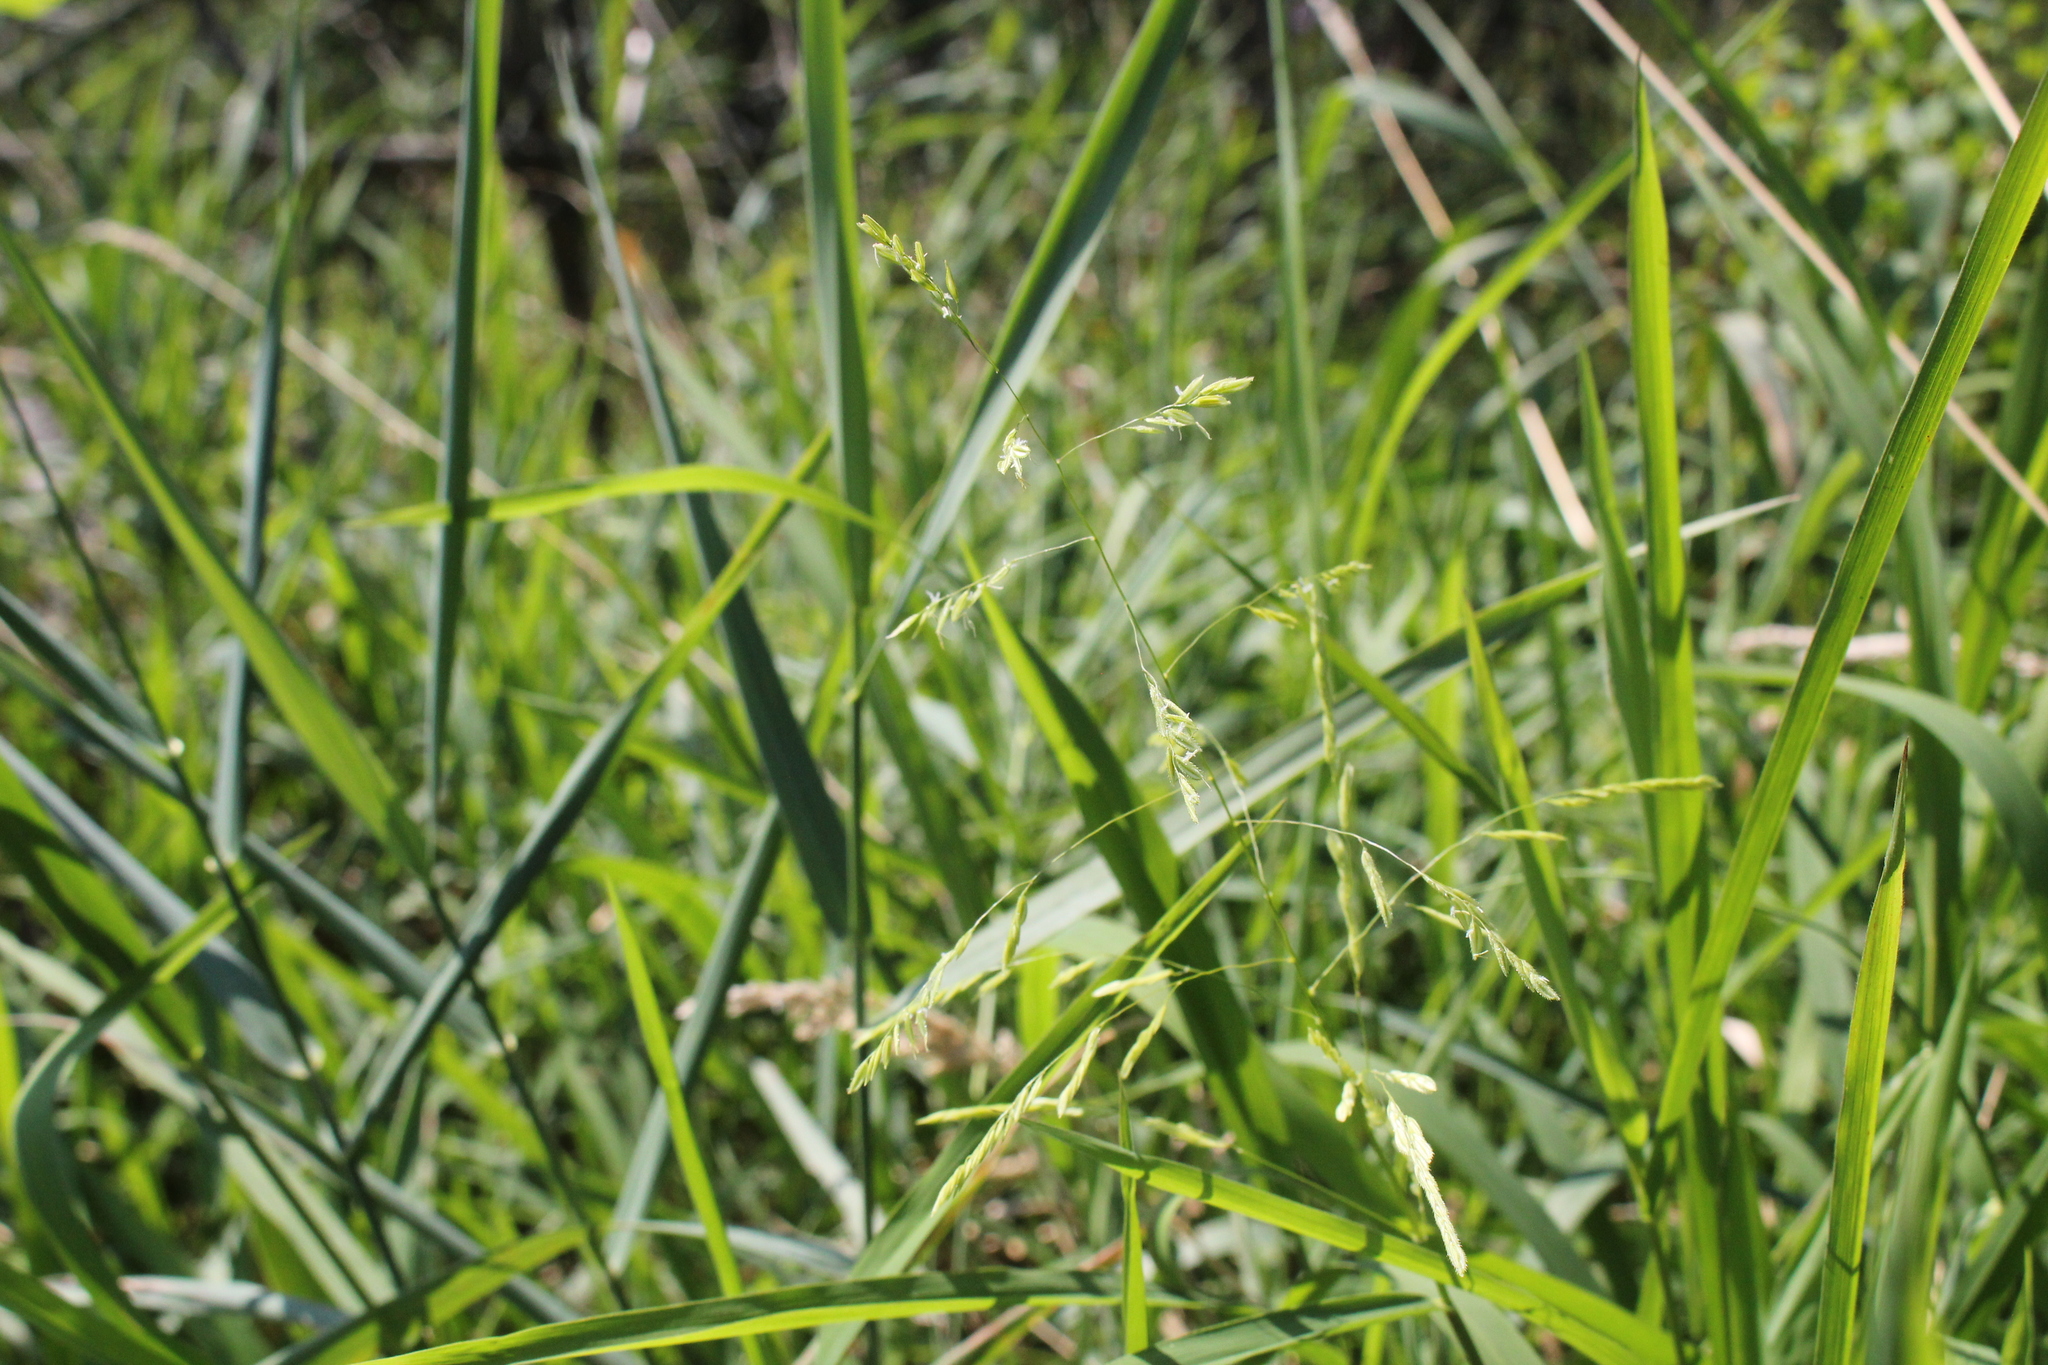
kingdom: Plantae
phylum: Tracheophyta
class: Liliopsida
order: Poales
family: Poaceae
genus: Leersia
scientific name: Leersia oryzoides
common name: Cut-grass
